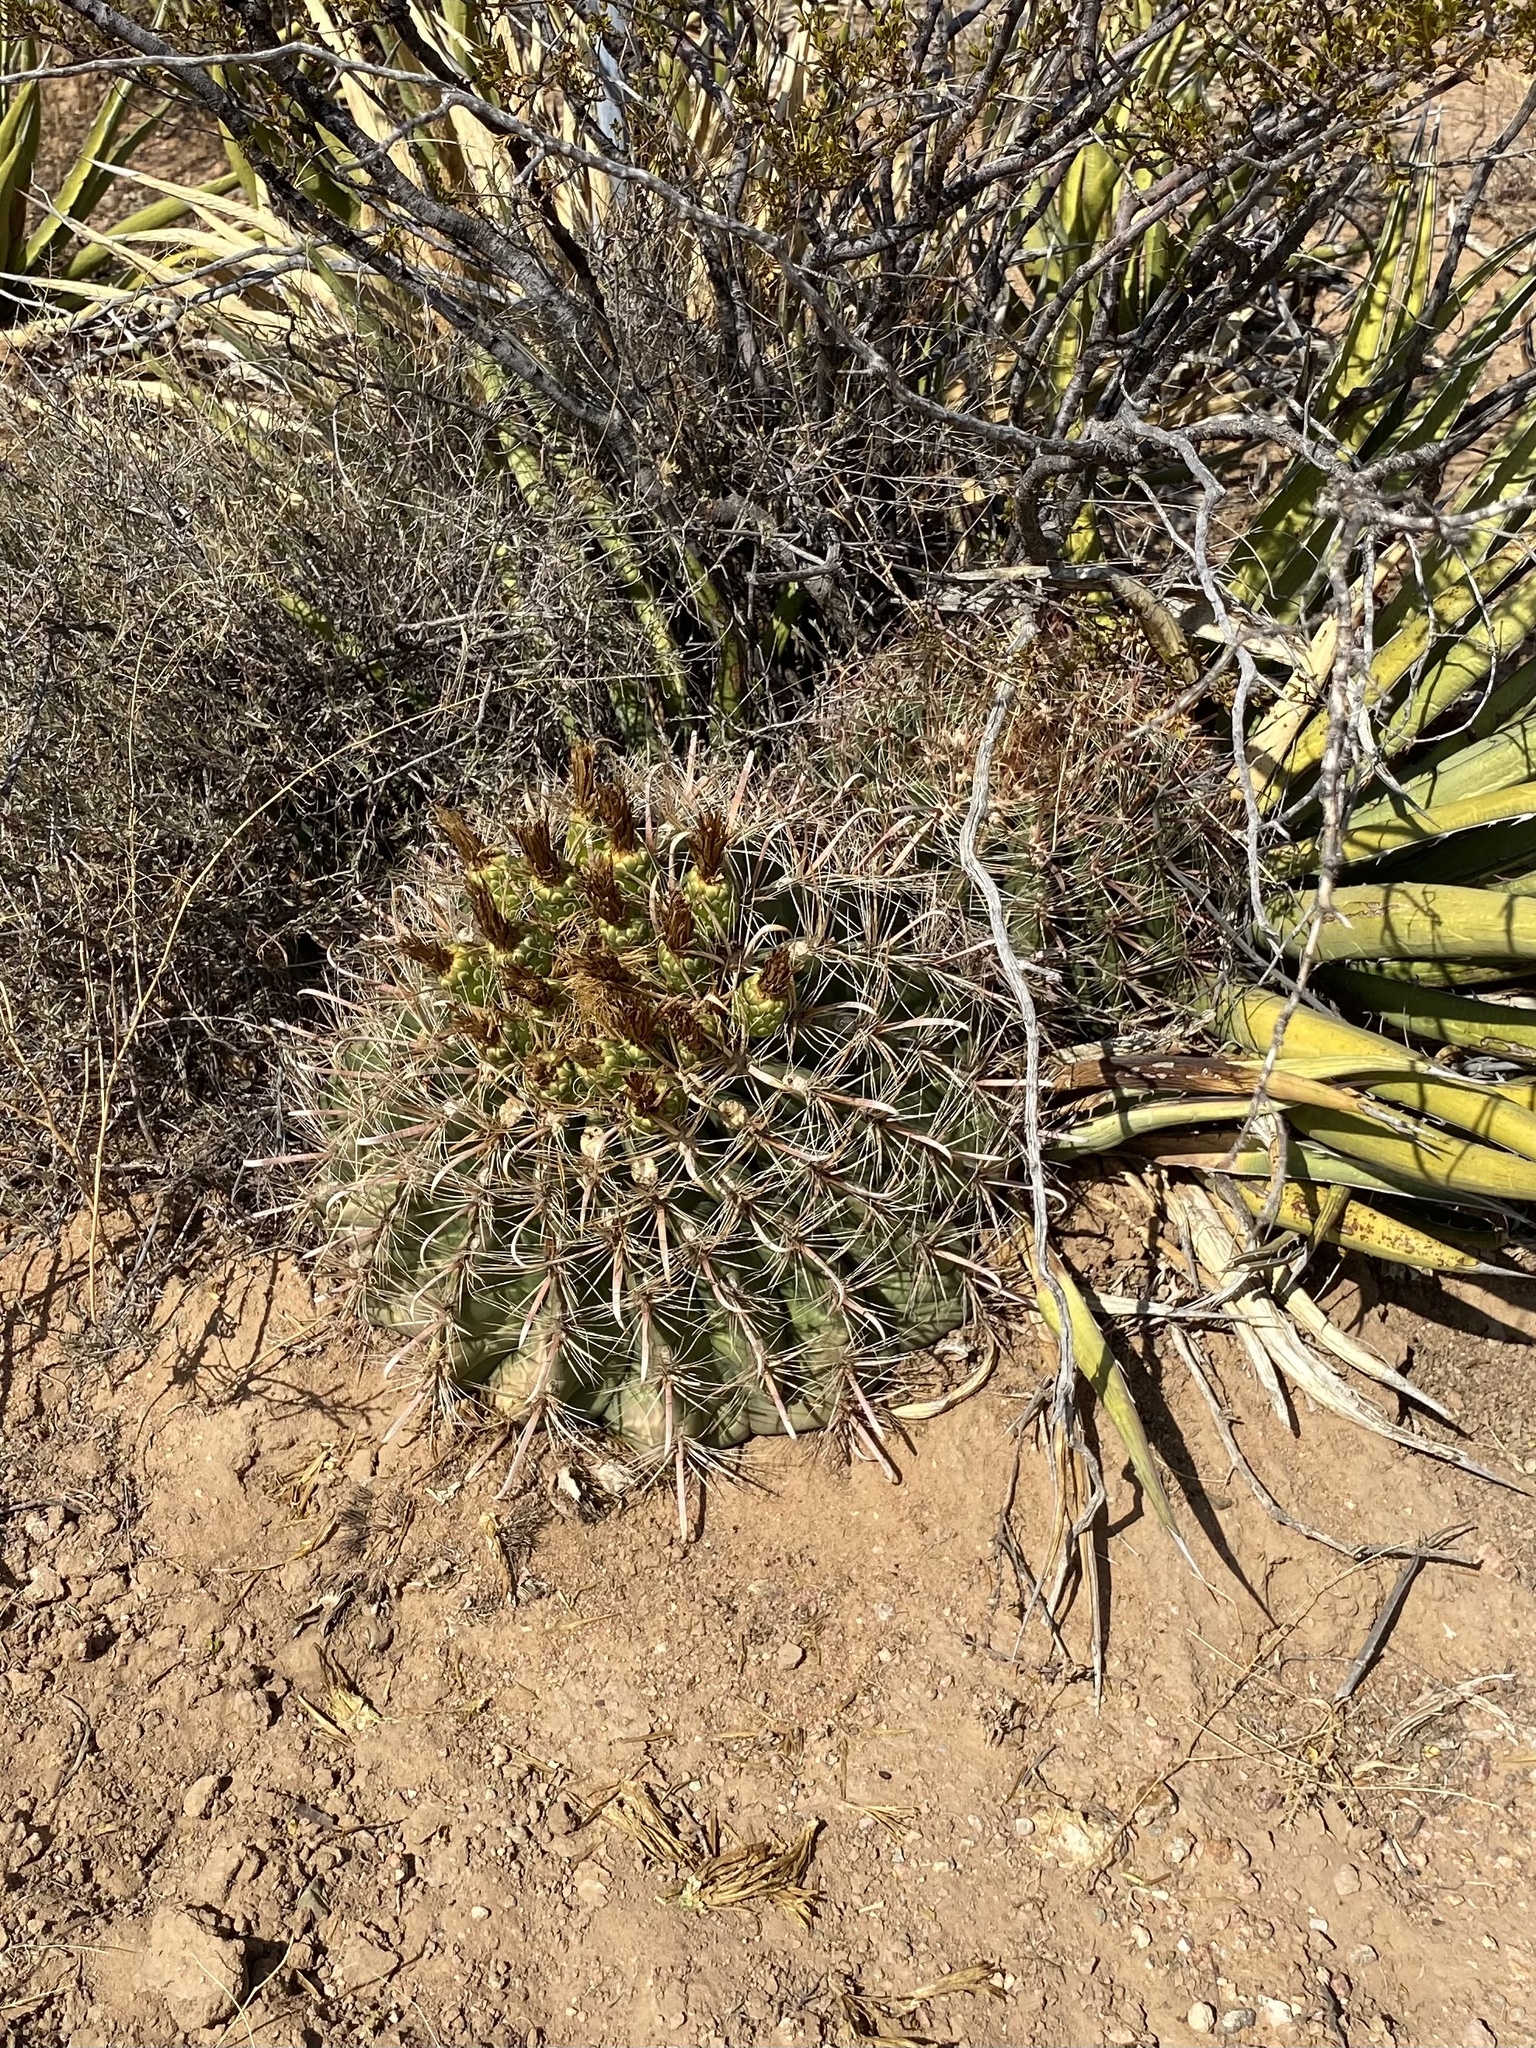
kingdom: Plantae
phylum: Tracheophyta
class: Magnoliopsida
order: Caryophyllales
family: Cactaceae
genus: Ferocactus
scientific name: Ferocactus wislizeni
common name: Candy barrel cactus
